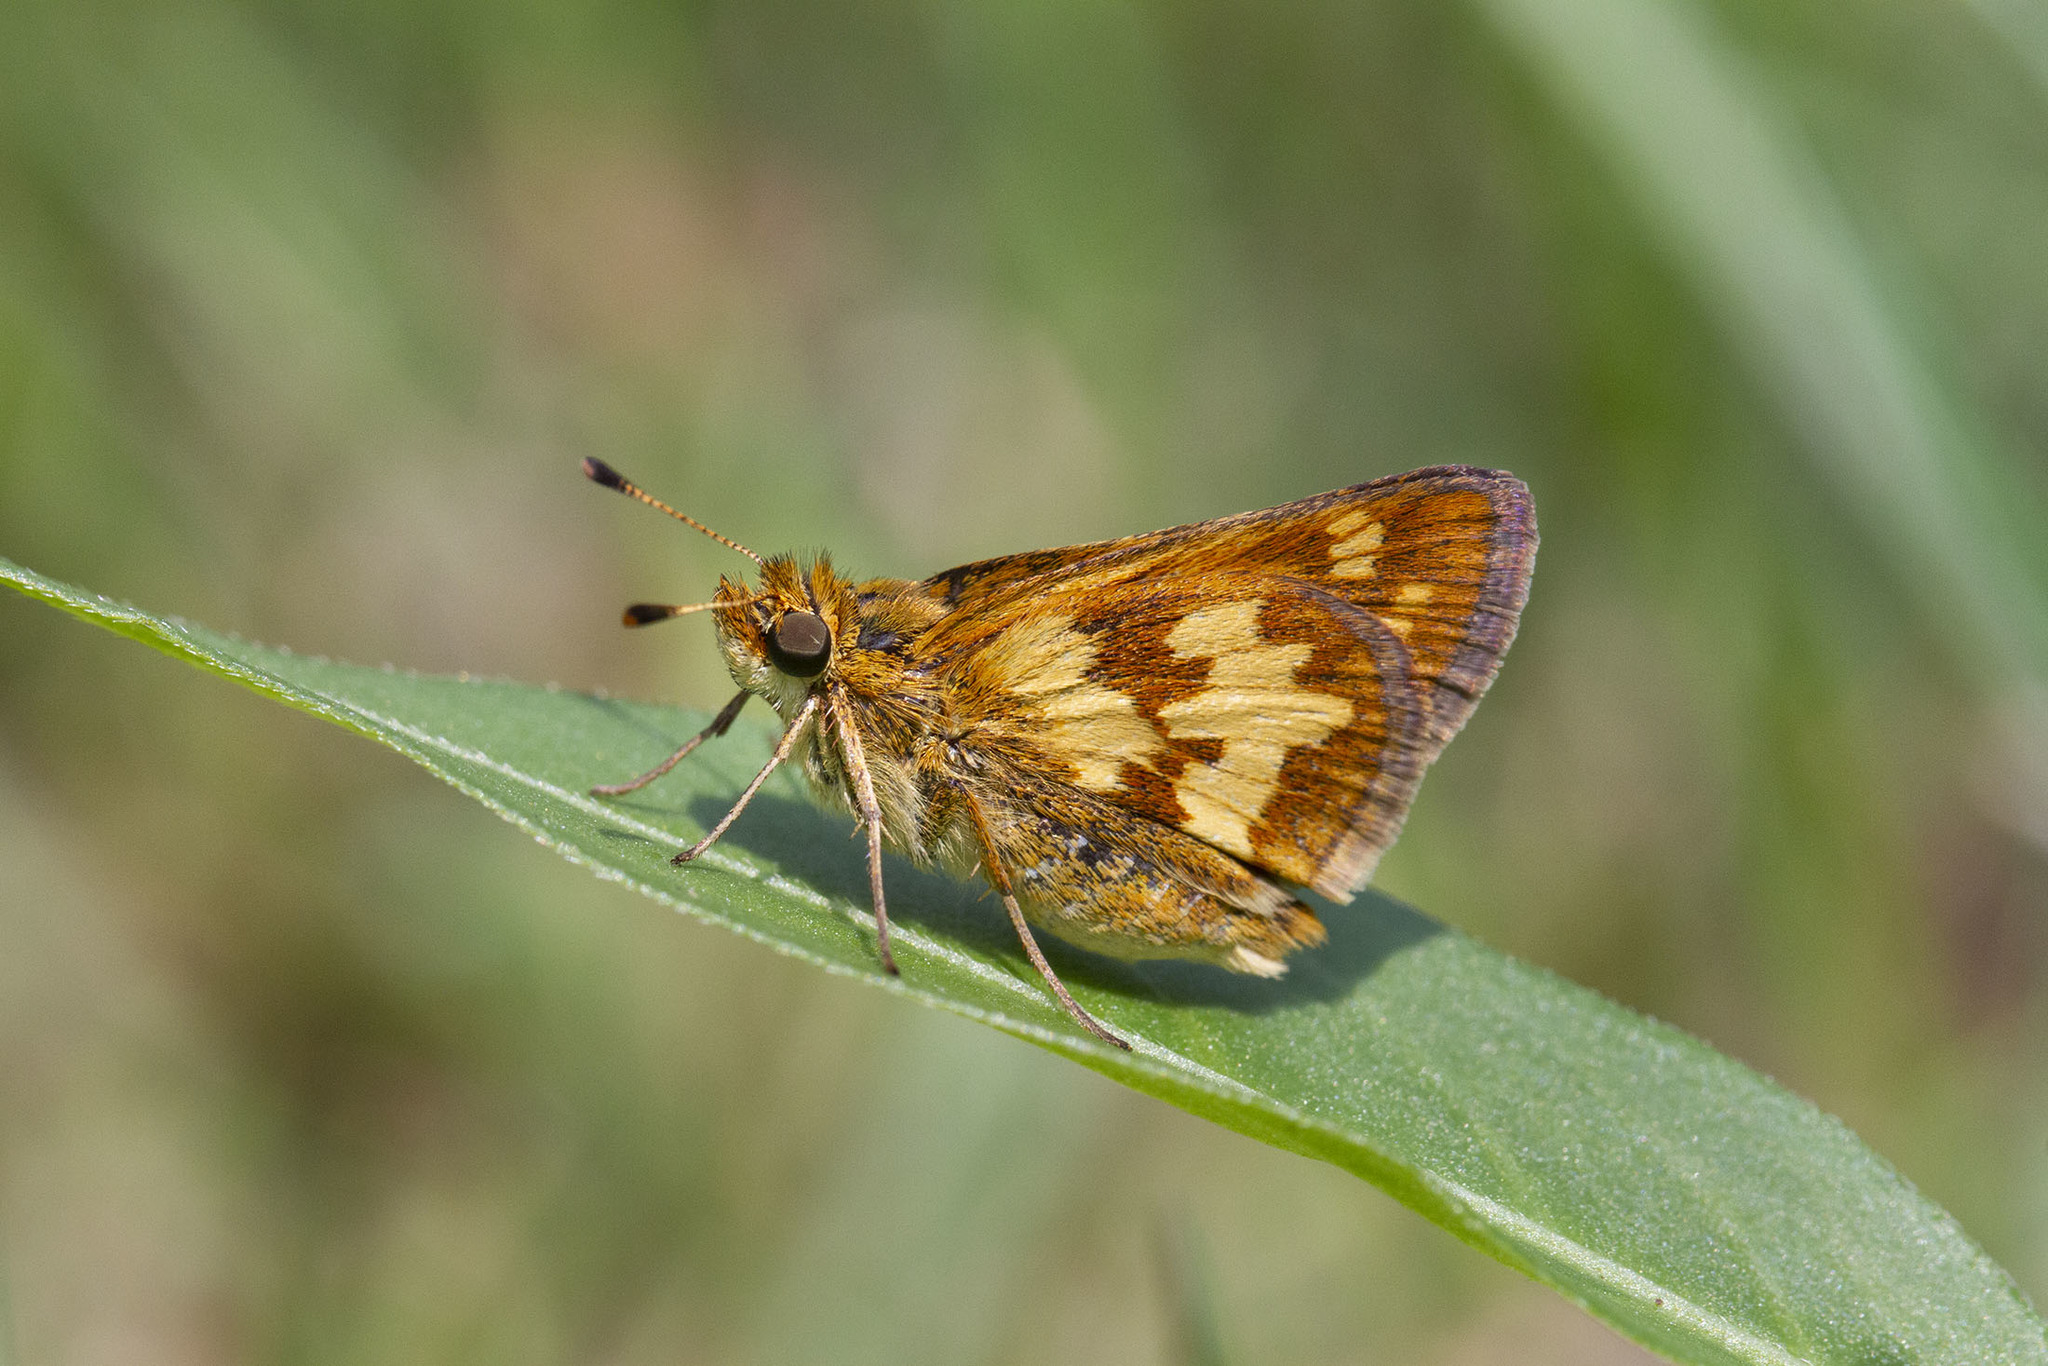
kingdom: Animalia
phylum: Arthropoda
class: Insecta
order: Lepidoptera
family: Hesperiidae
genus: Polites
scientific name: Polites coras
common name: Peck's skipper
